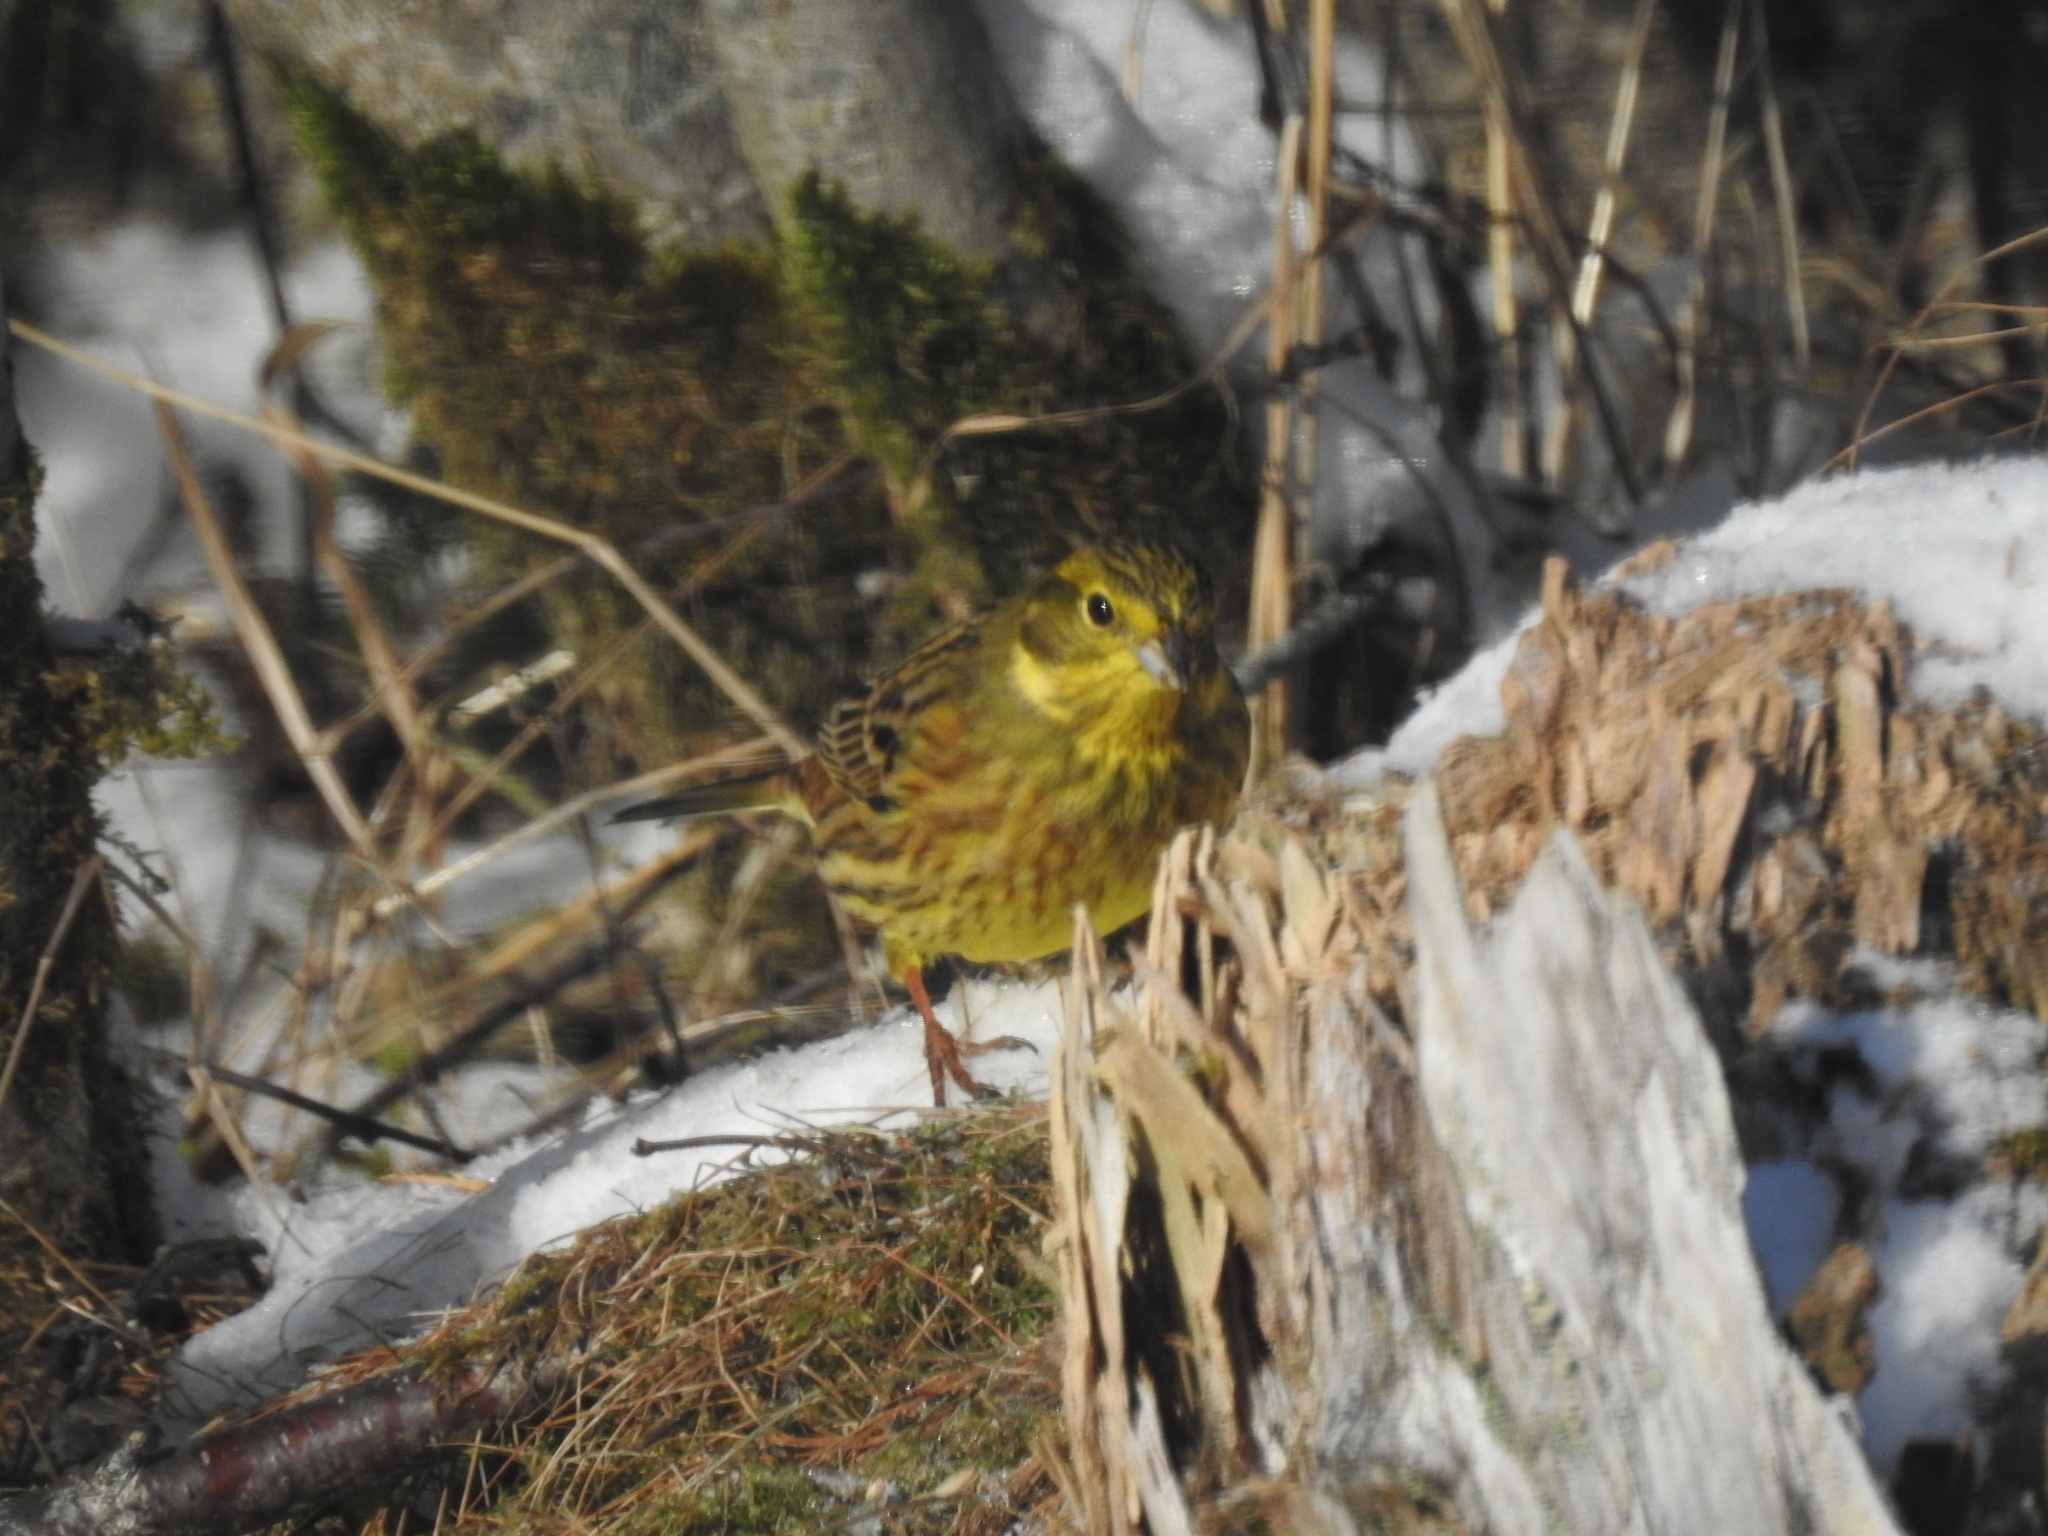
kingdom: Animalia
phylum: Chordata
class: Aves
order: Passeriformes
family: Emberizidae
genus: Emberiza
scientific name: Emberiza citrinella
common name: Yellowhammer
